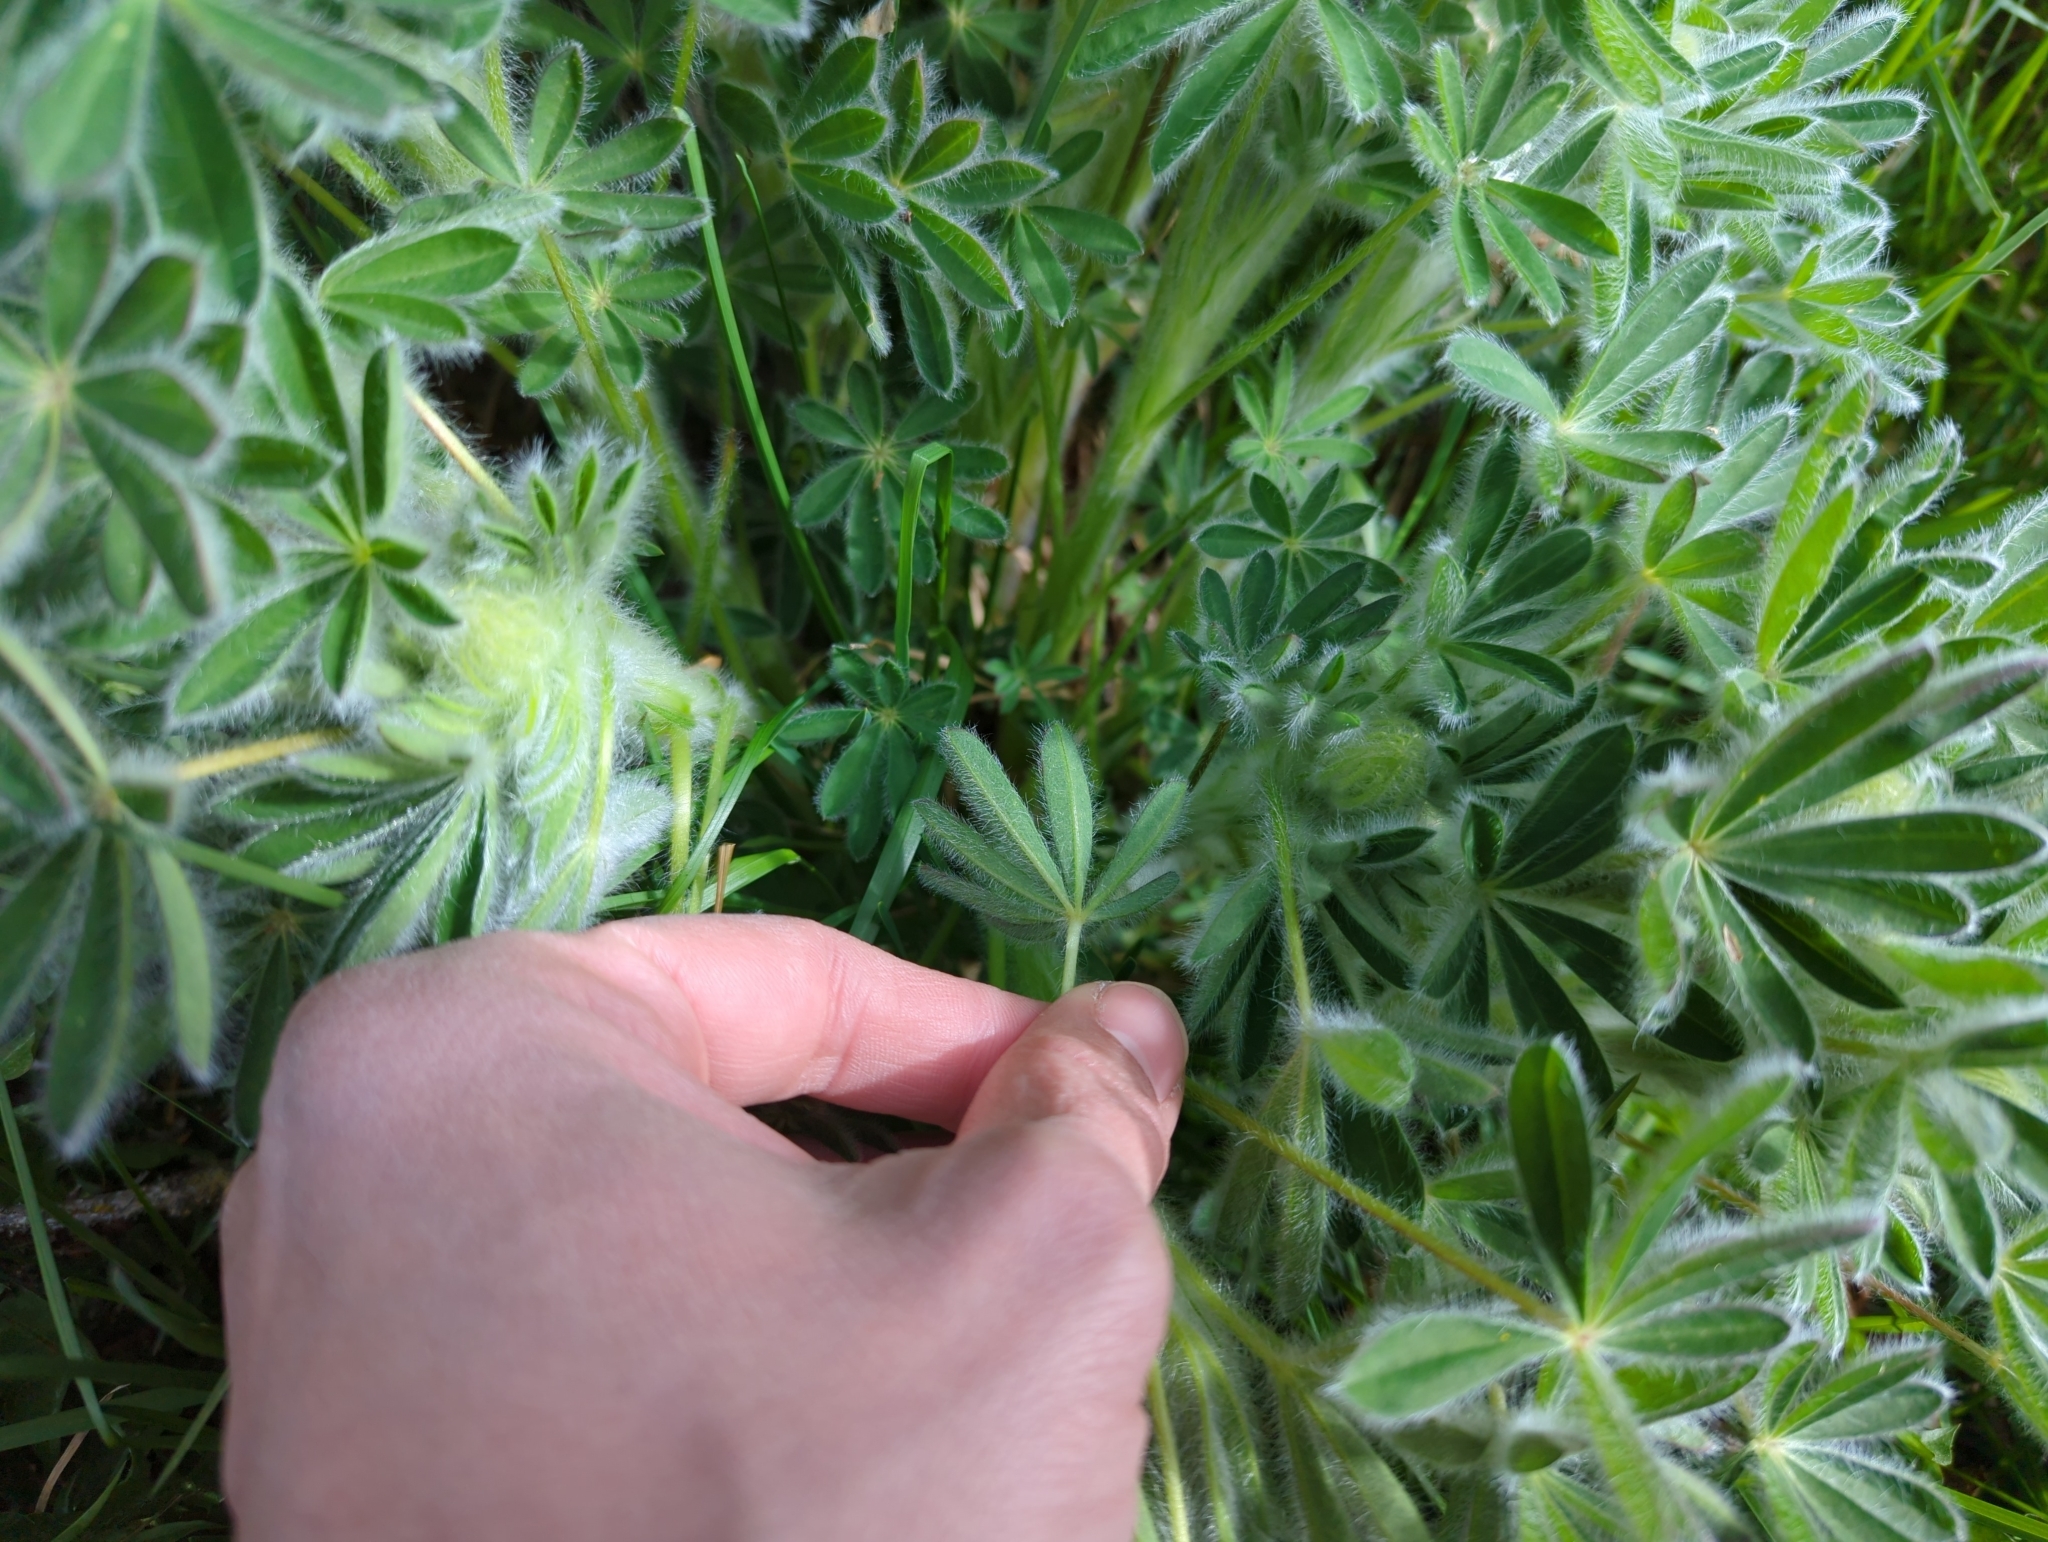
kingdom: Plantae
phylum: Tracheophyta
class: Magnoliopsida
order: Fabales
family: Fabaceae
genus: Lupinus
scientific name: Lupinus nootkatensis
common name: Nootka lupine
